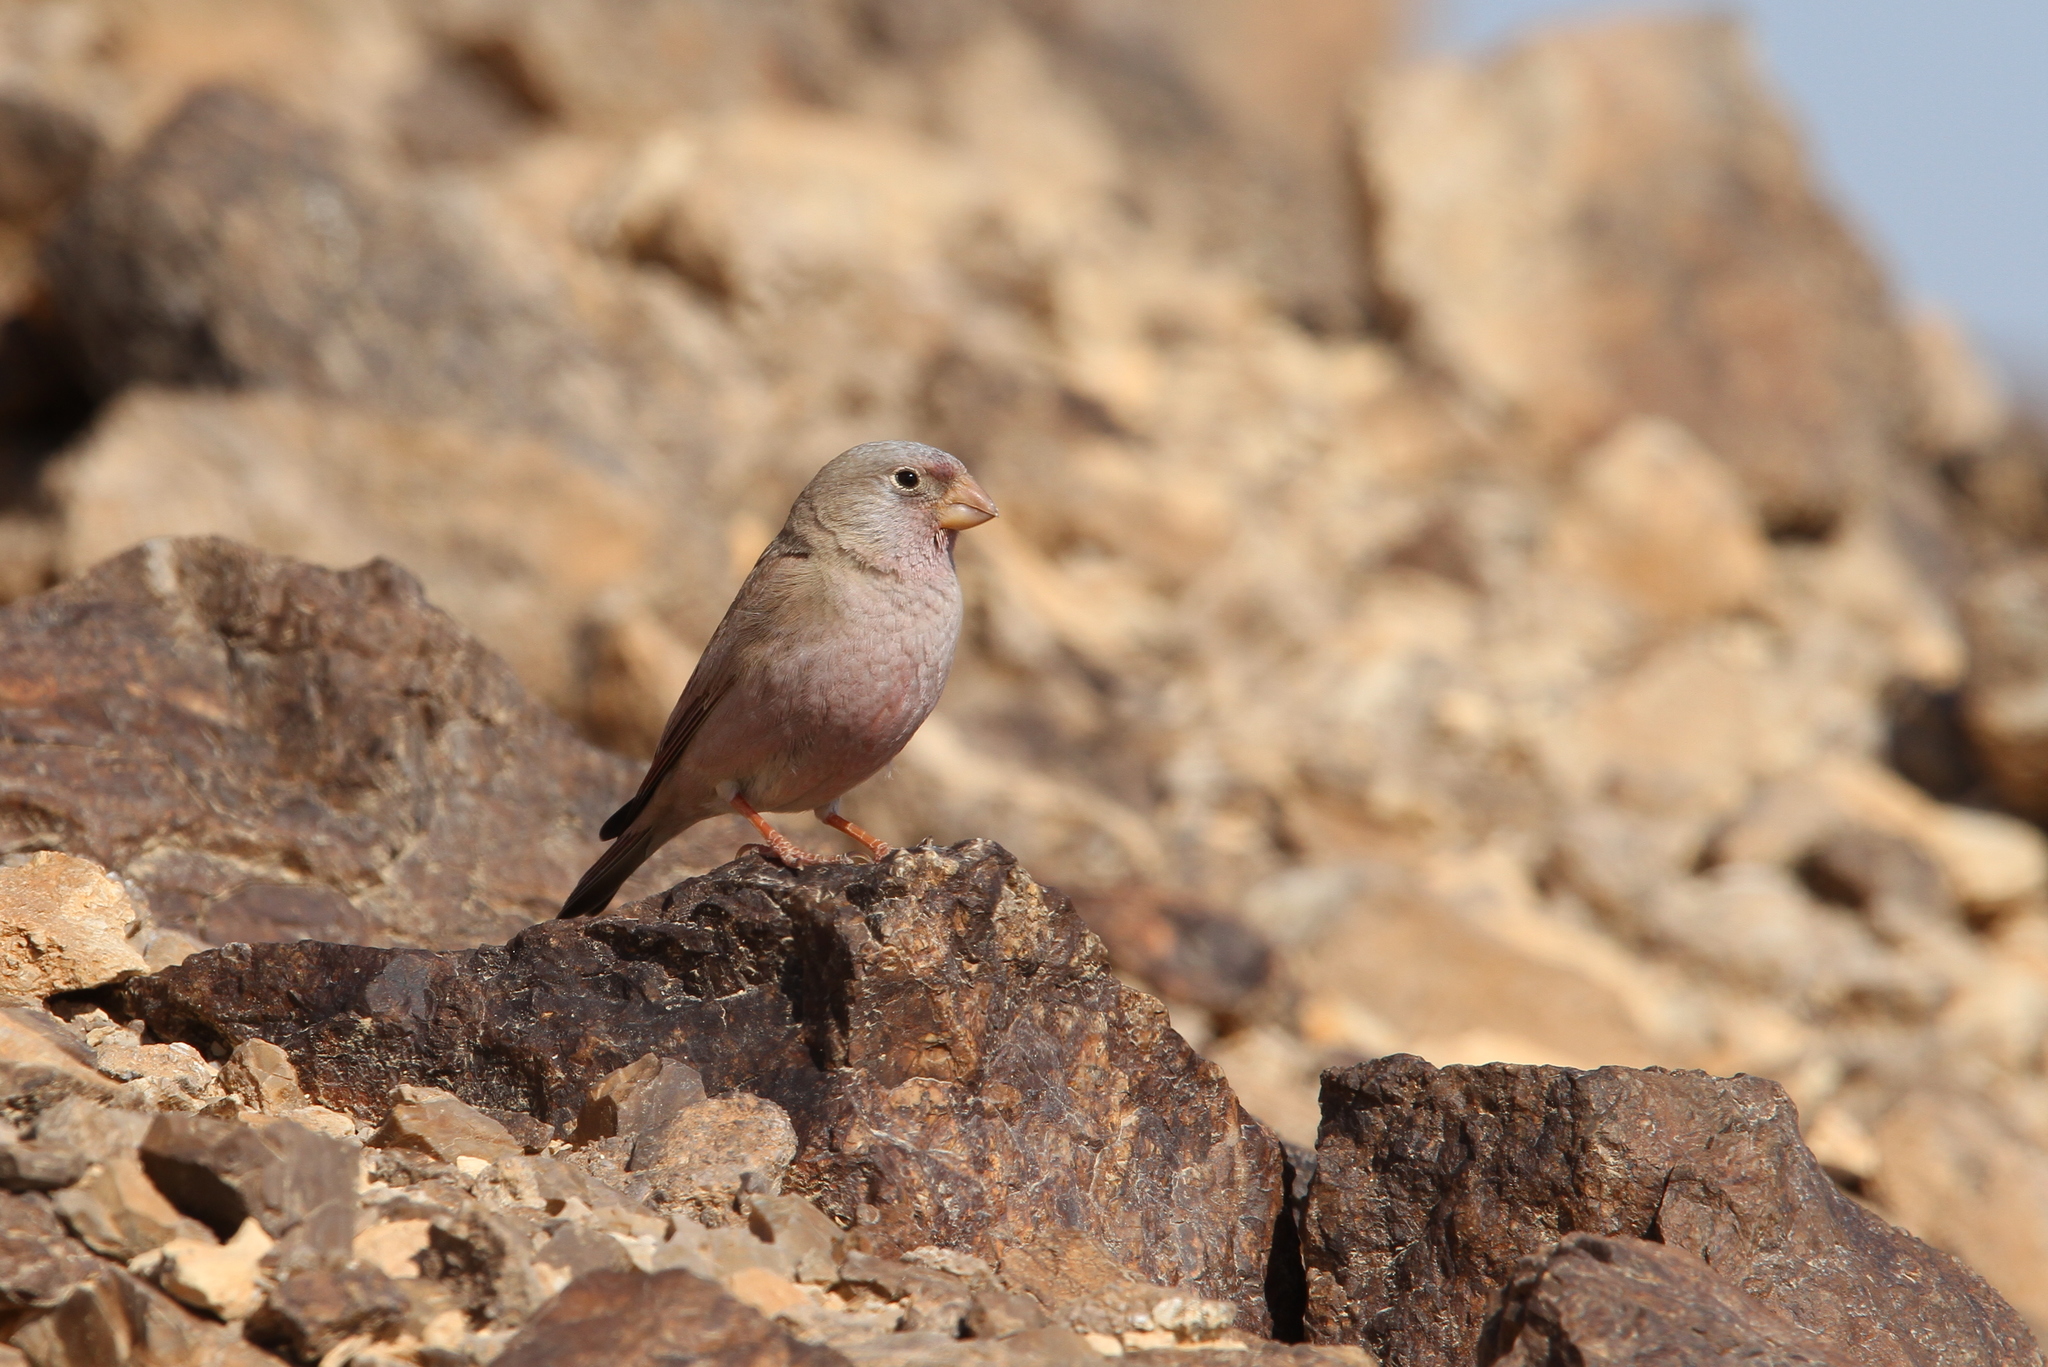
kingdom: Animalia
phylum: Chordata
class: Aves
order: Passeriformes
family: Fringillidae
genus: Bucanetes
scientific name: Bucanetes githagineus
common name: Trumpeter finch
